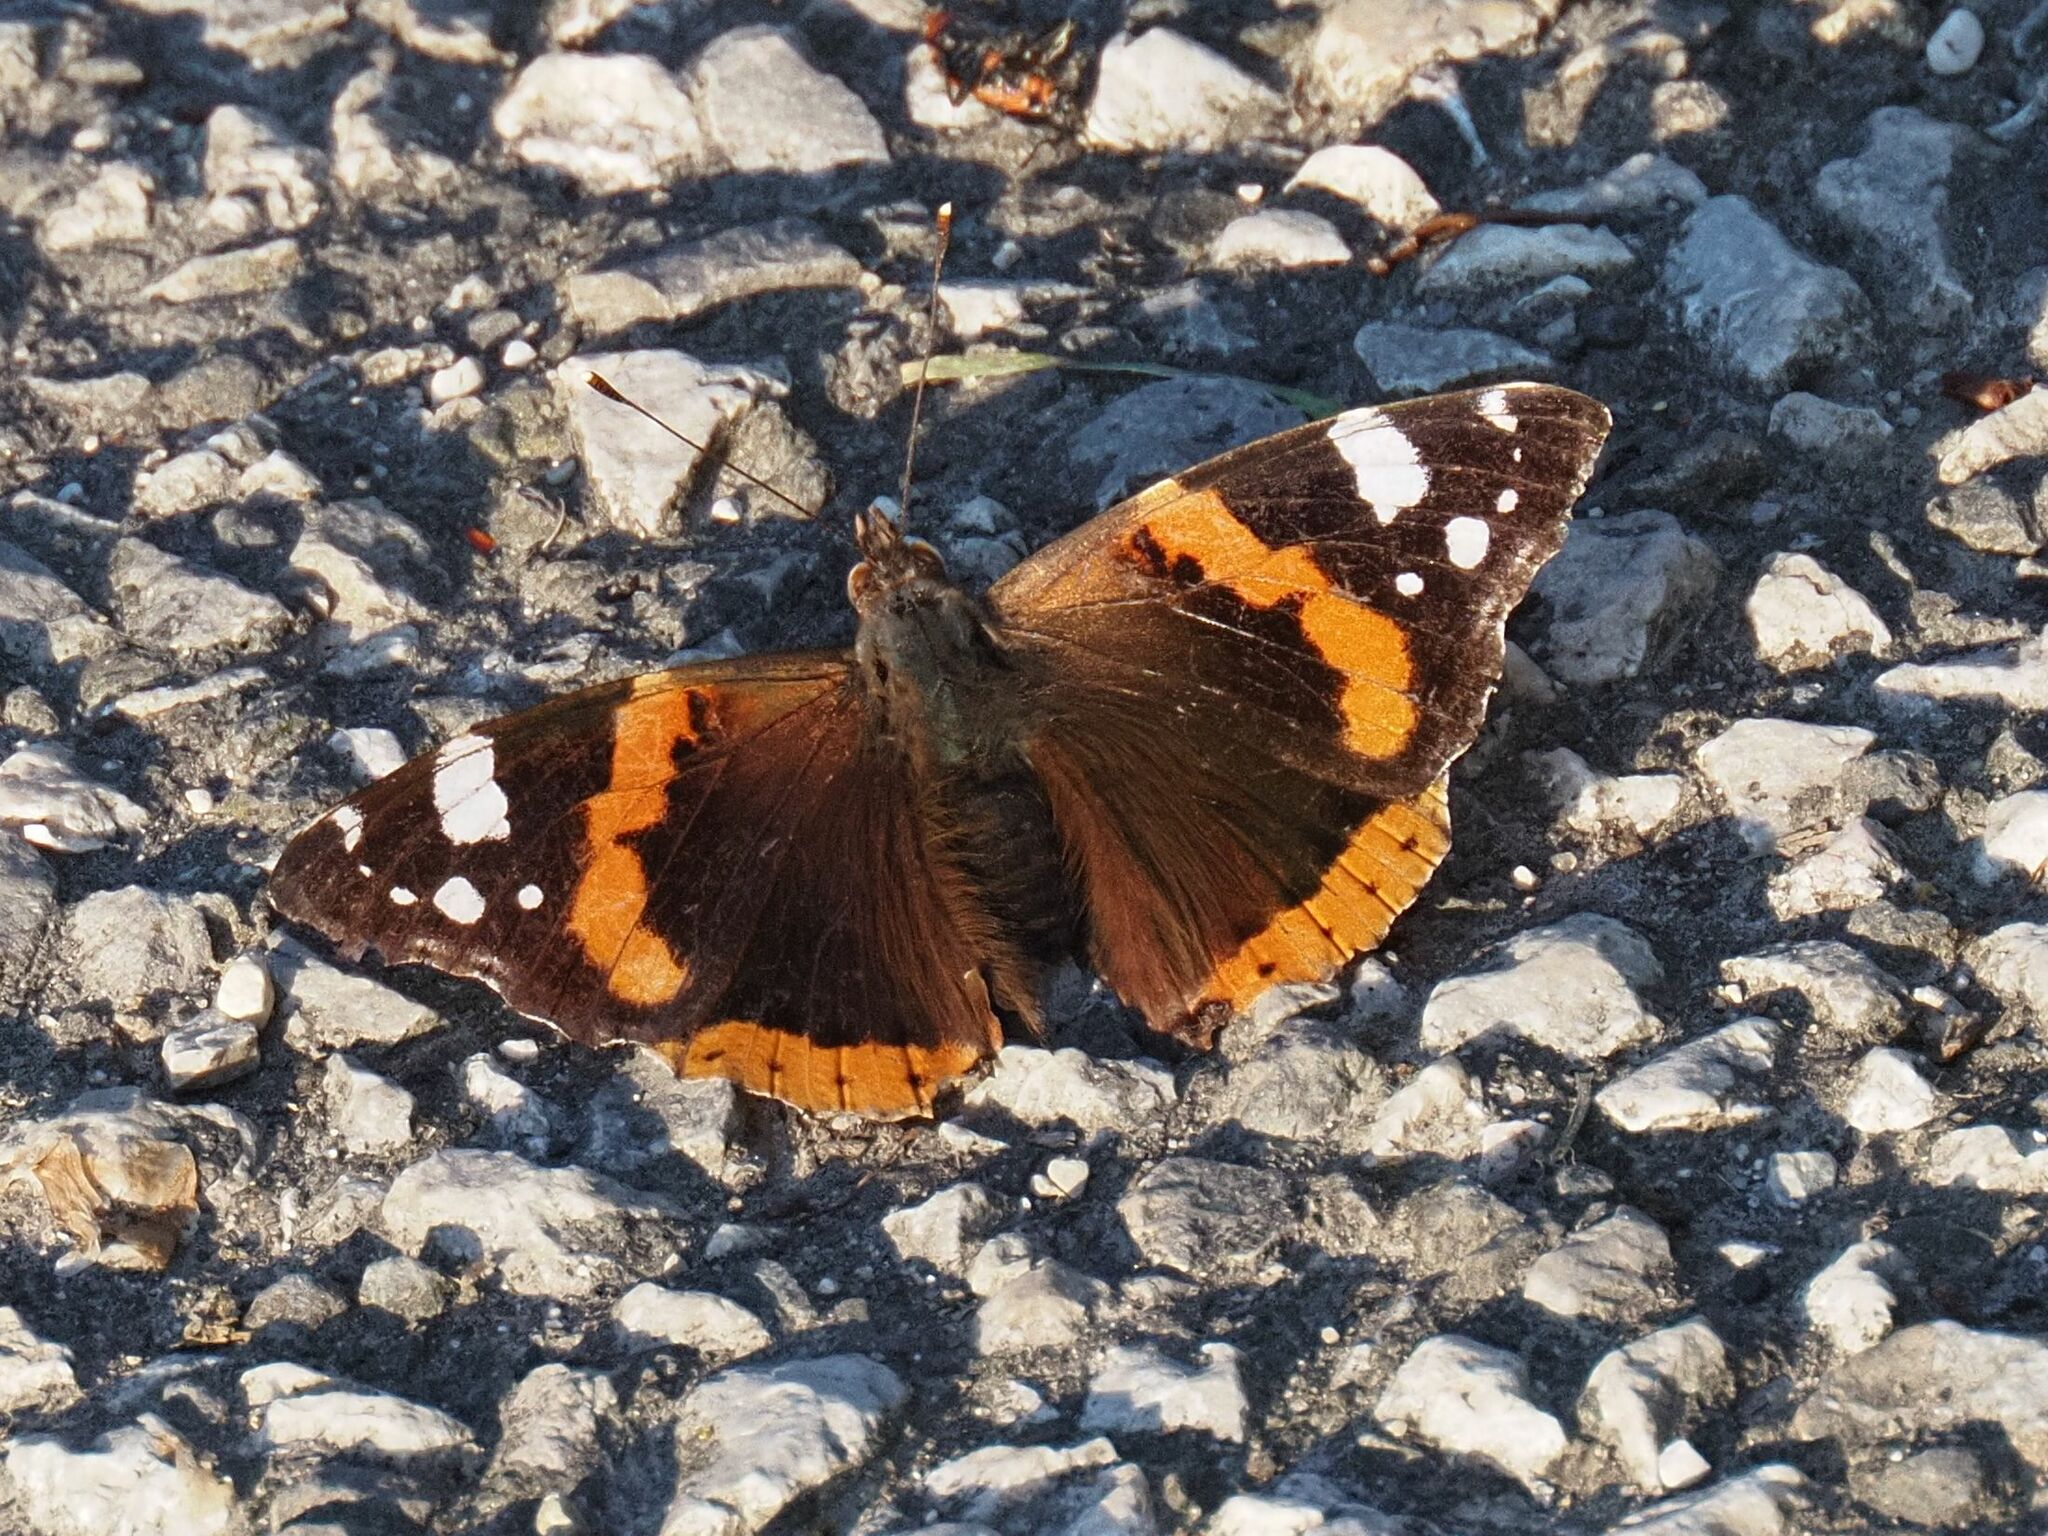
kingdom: Animalia
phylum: Arthropoda
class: Insecta
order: Lepidoptera
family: Nymphalidae
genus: Vanessa
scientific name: Vanessa atalanta
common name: Red admiral
